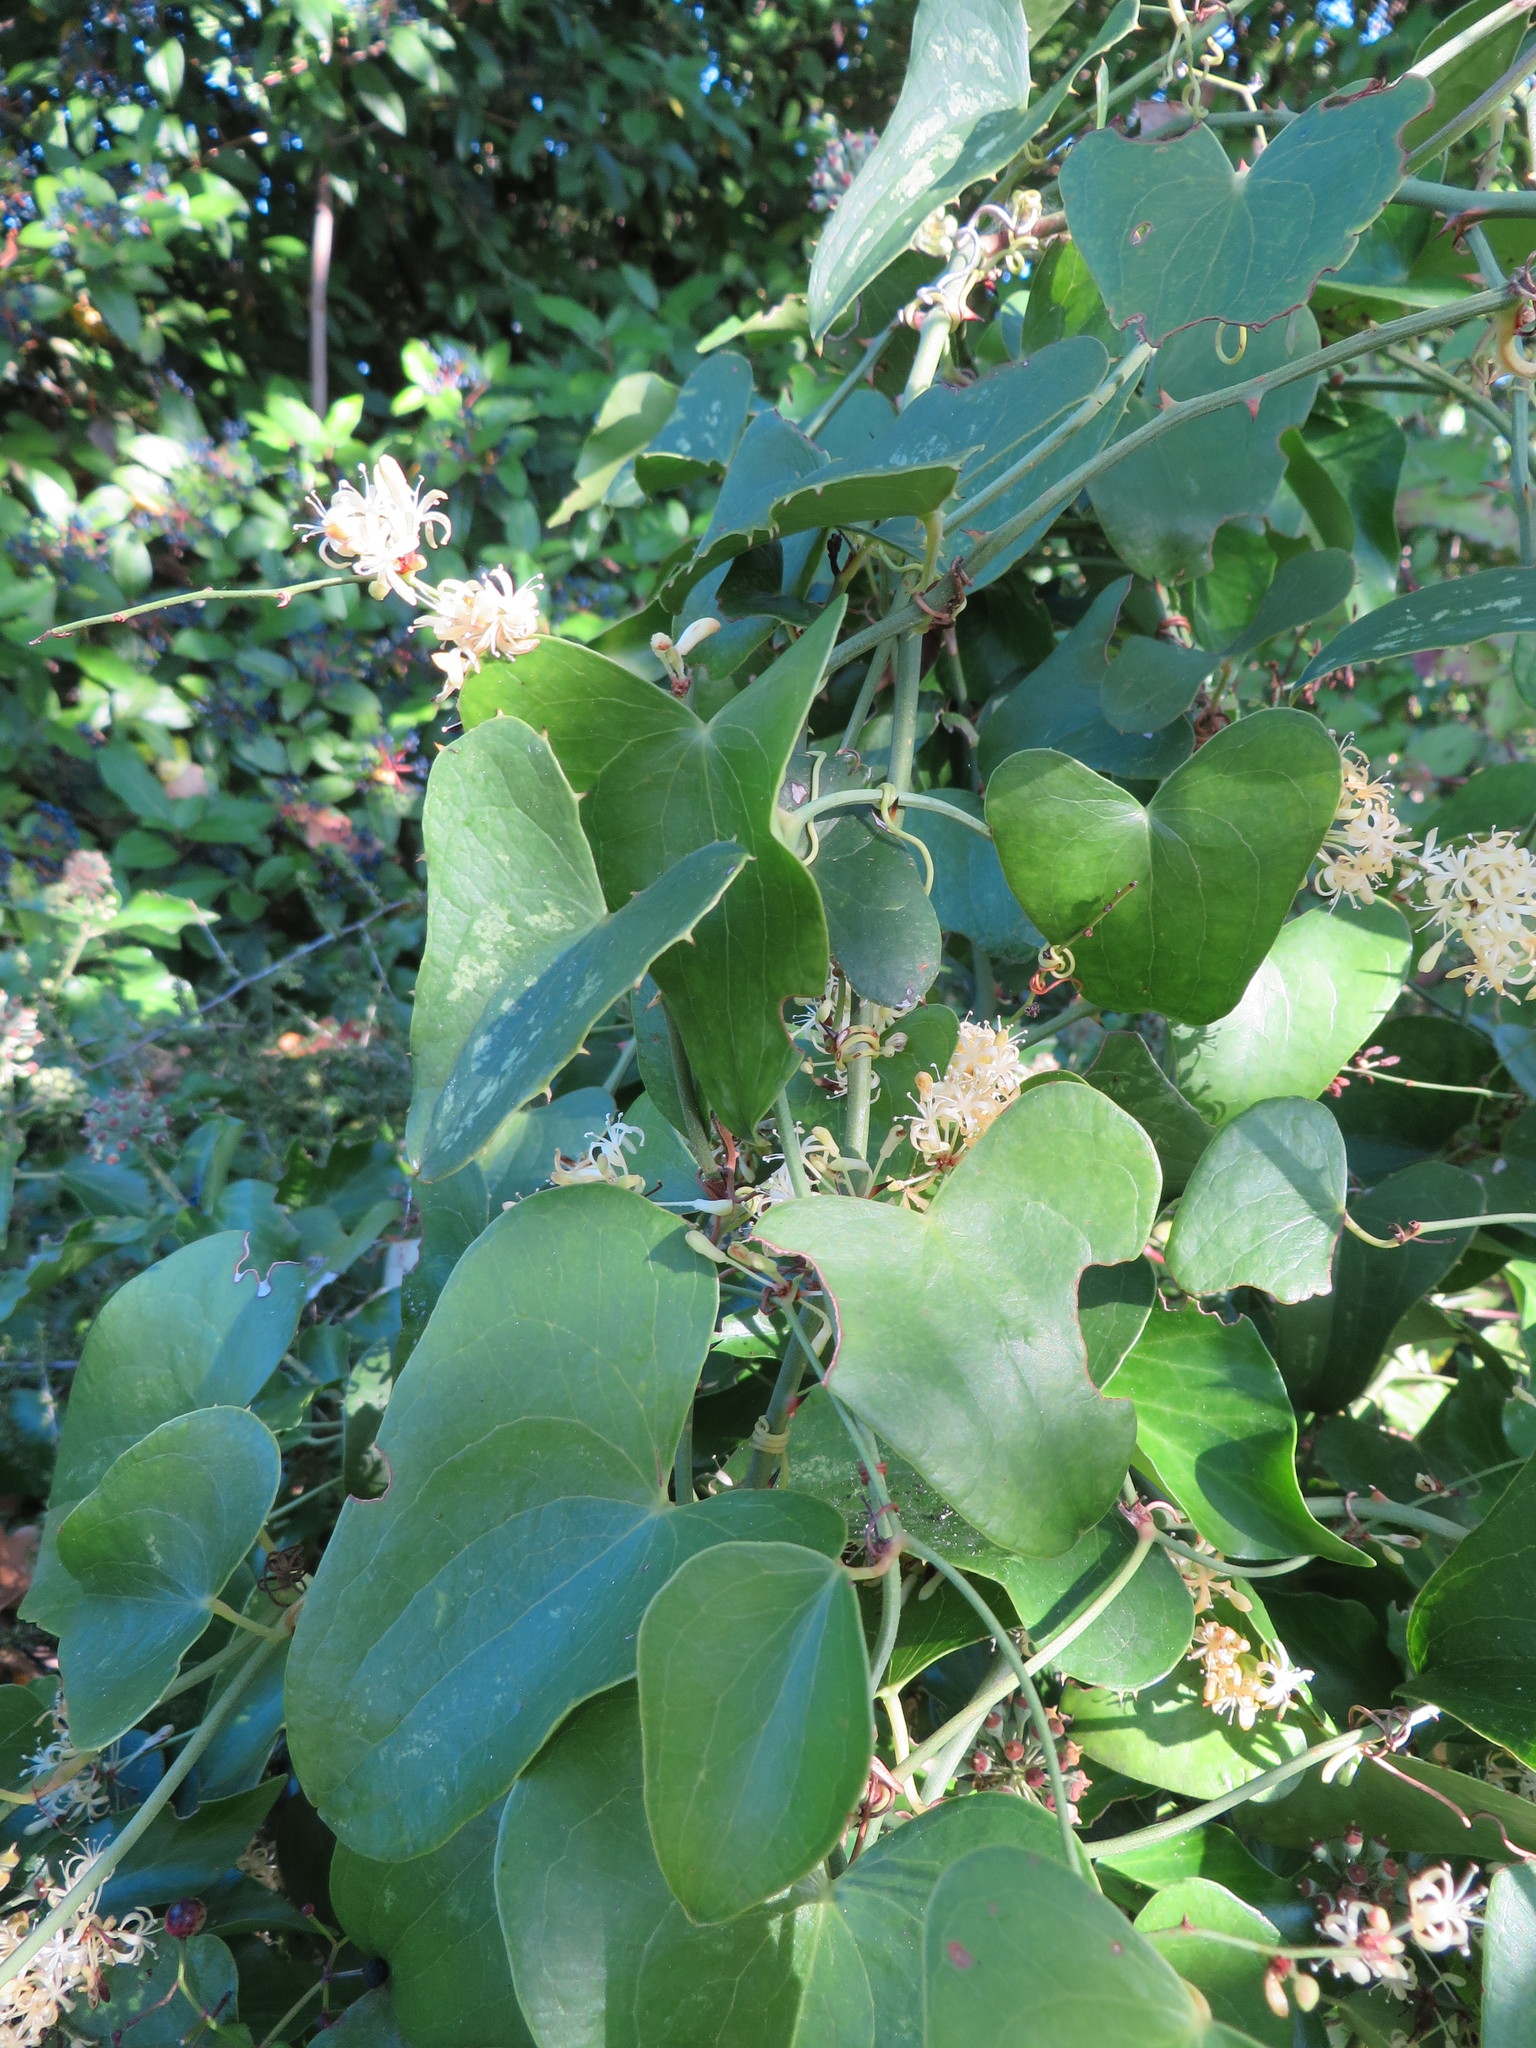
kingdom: Plantae
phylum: Tracheophyta
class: Liliopsida
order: Liliales
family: Smilacaceae
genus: Smilax
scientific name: Smilax aspera
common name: Common smilax
